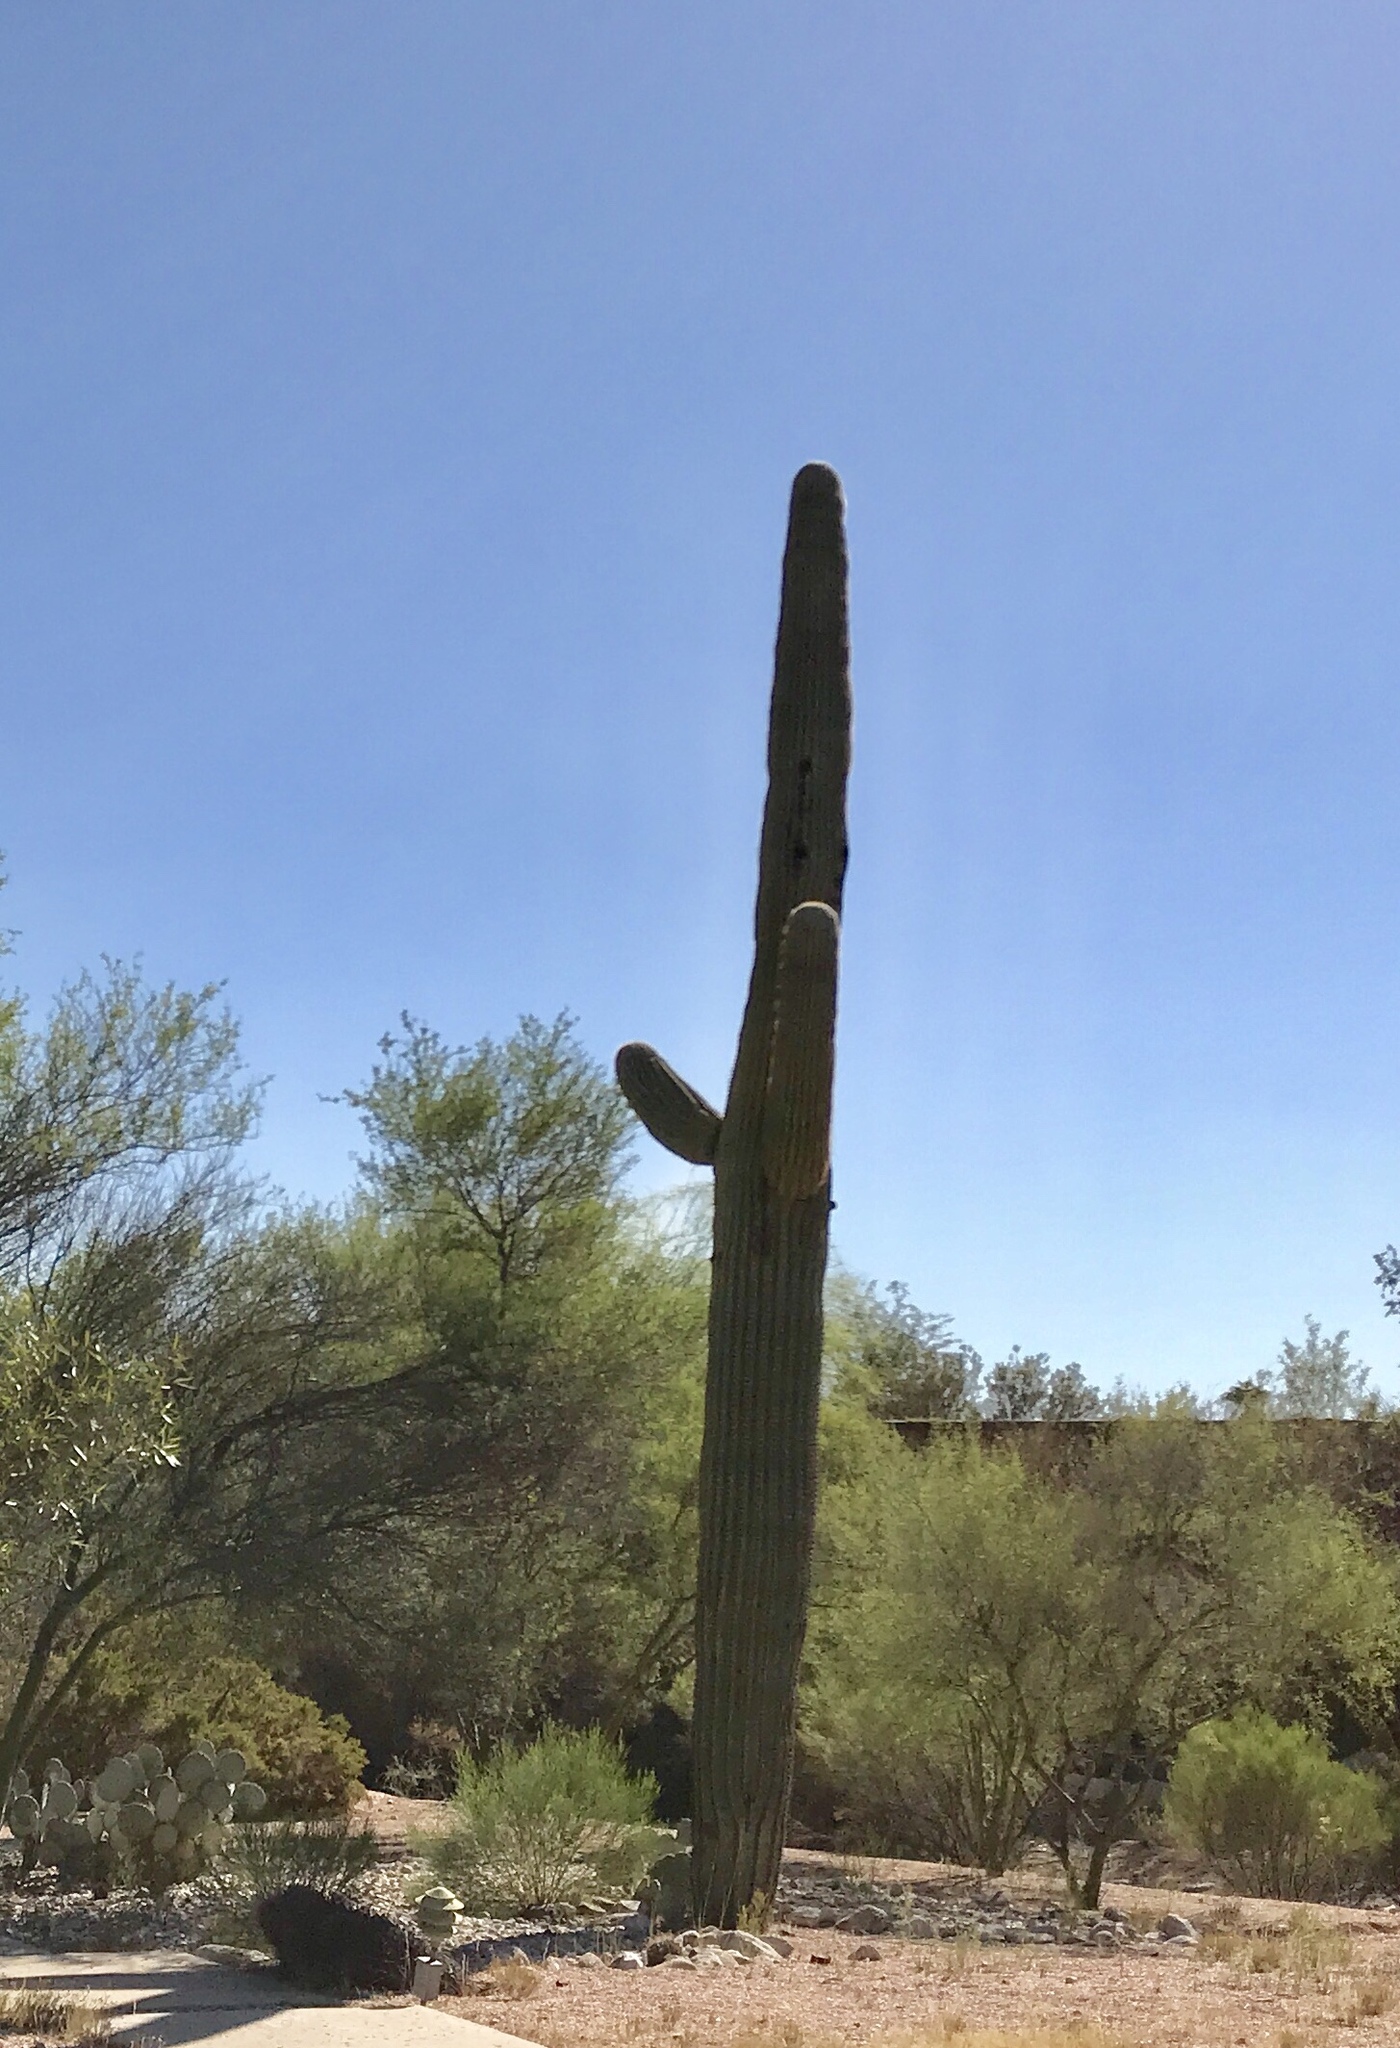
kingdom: Plantae
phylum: Tracheophyta
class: Magnoliopsida
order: Caryophyllales
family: Cactaceae
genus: Carnegiea
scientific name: Carnegiea gigantea
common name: Saguaro
